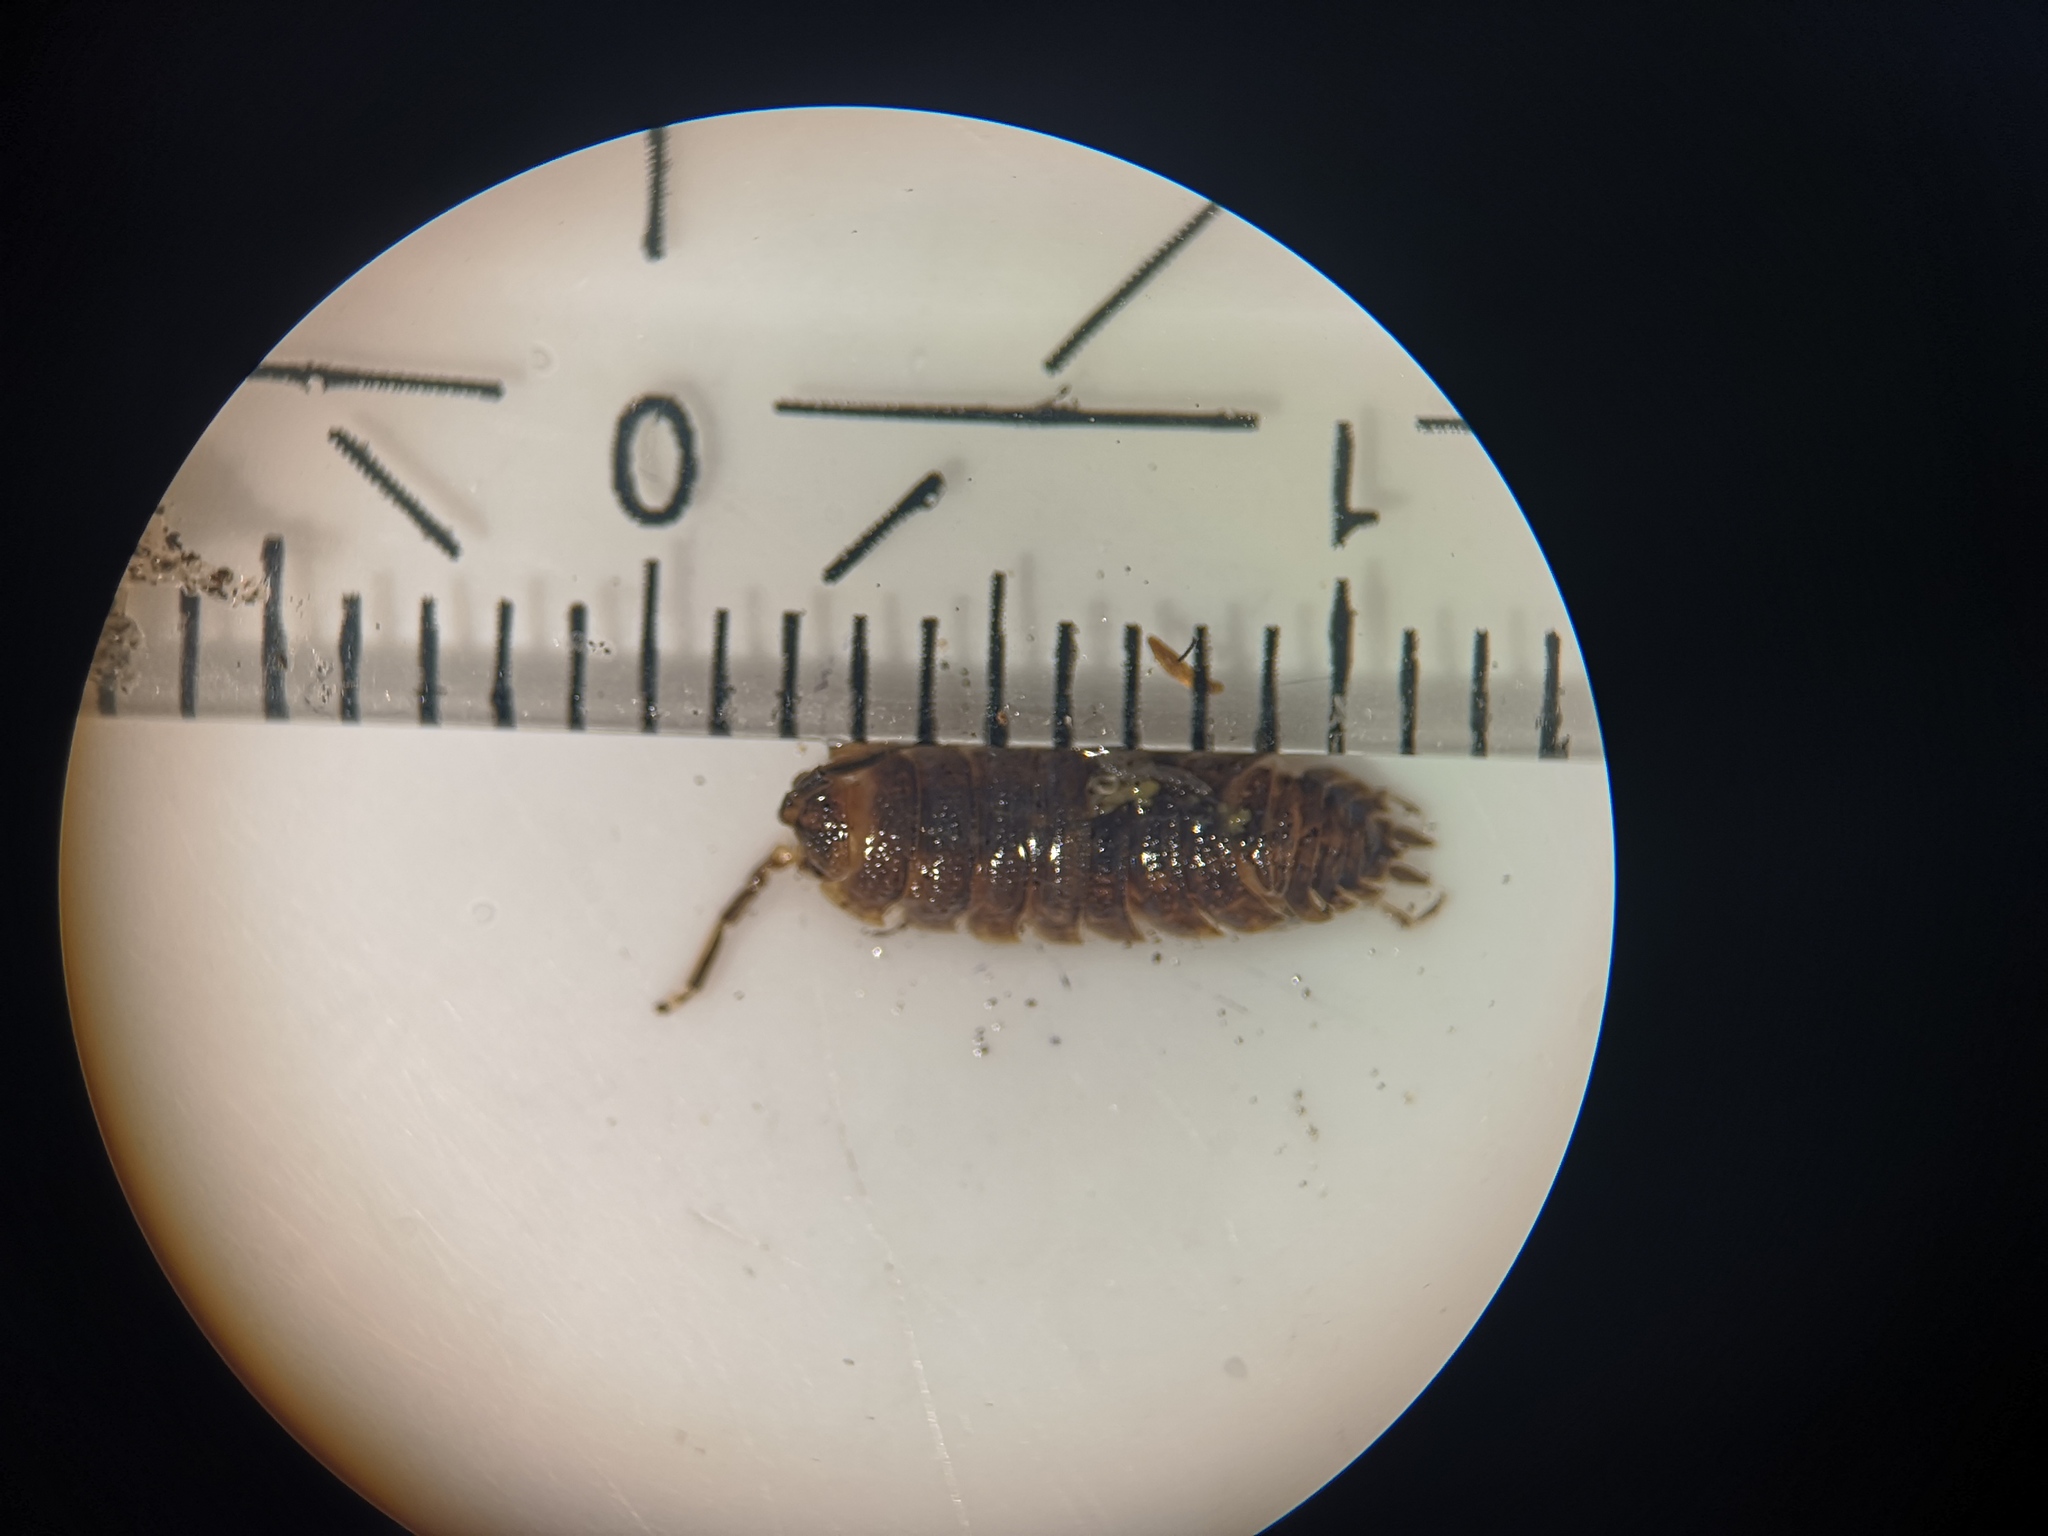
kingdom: Animalia
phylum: Arthropoda
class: Malacostraca
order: Isopoda
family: Porcellionidae
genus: Porcellio
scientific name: Porcellio scaber
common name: Common rough woodlouse
